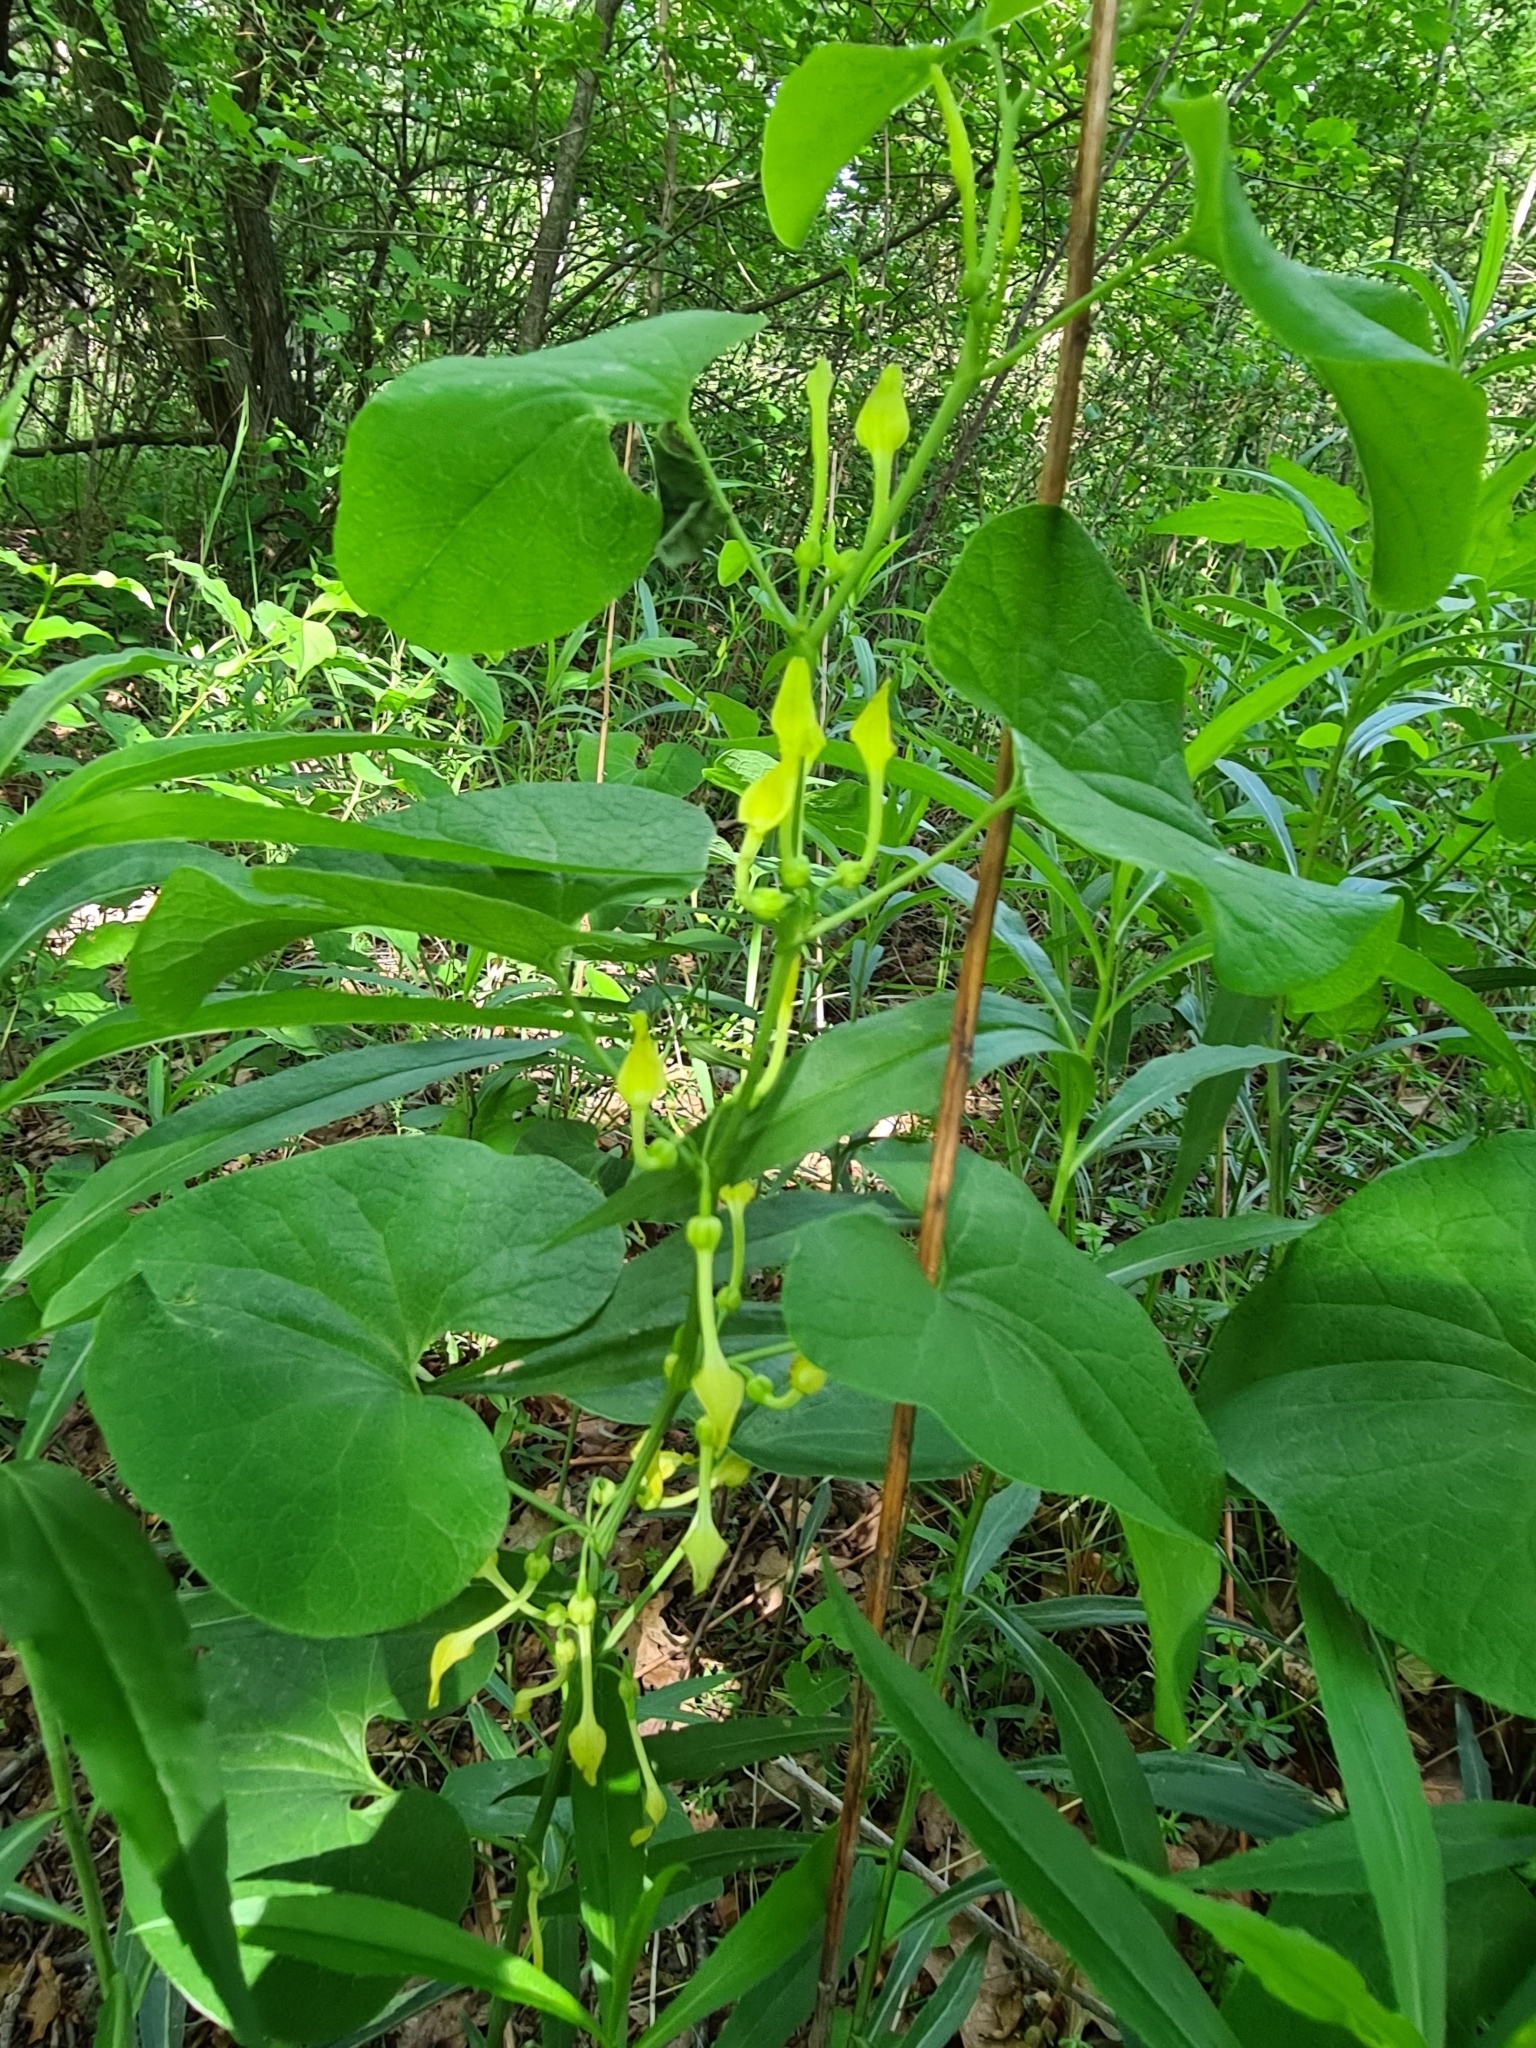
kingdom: Plantae
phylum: Tracheophyta
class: Magnoliopsida
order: Piperales
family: Aristolochiaceae
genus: Aristolochia
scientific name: Aristolochia clematitis
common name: Birthwort
